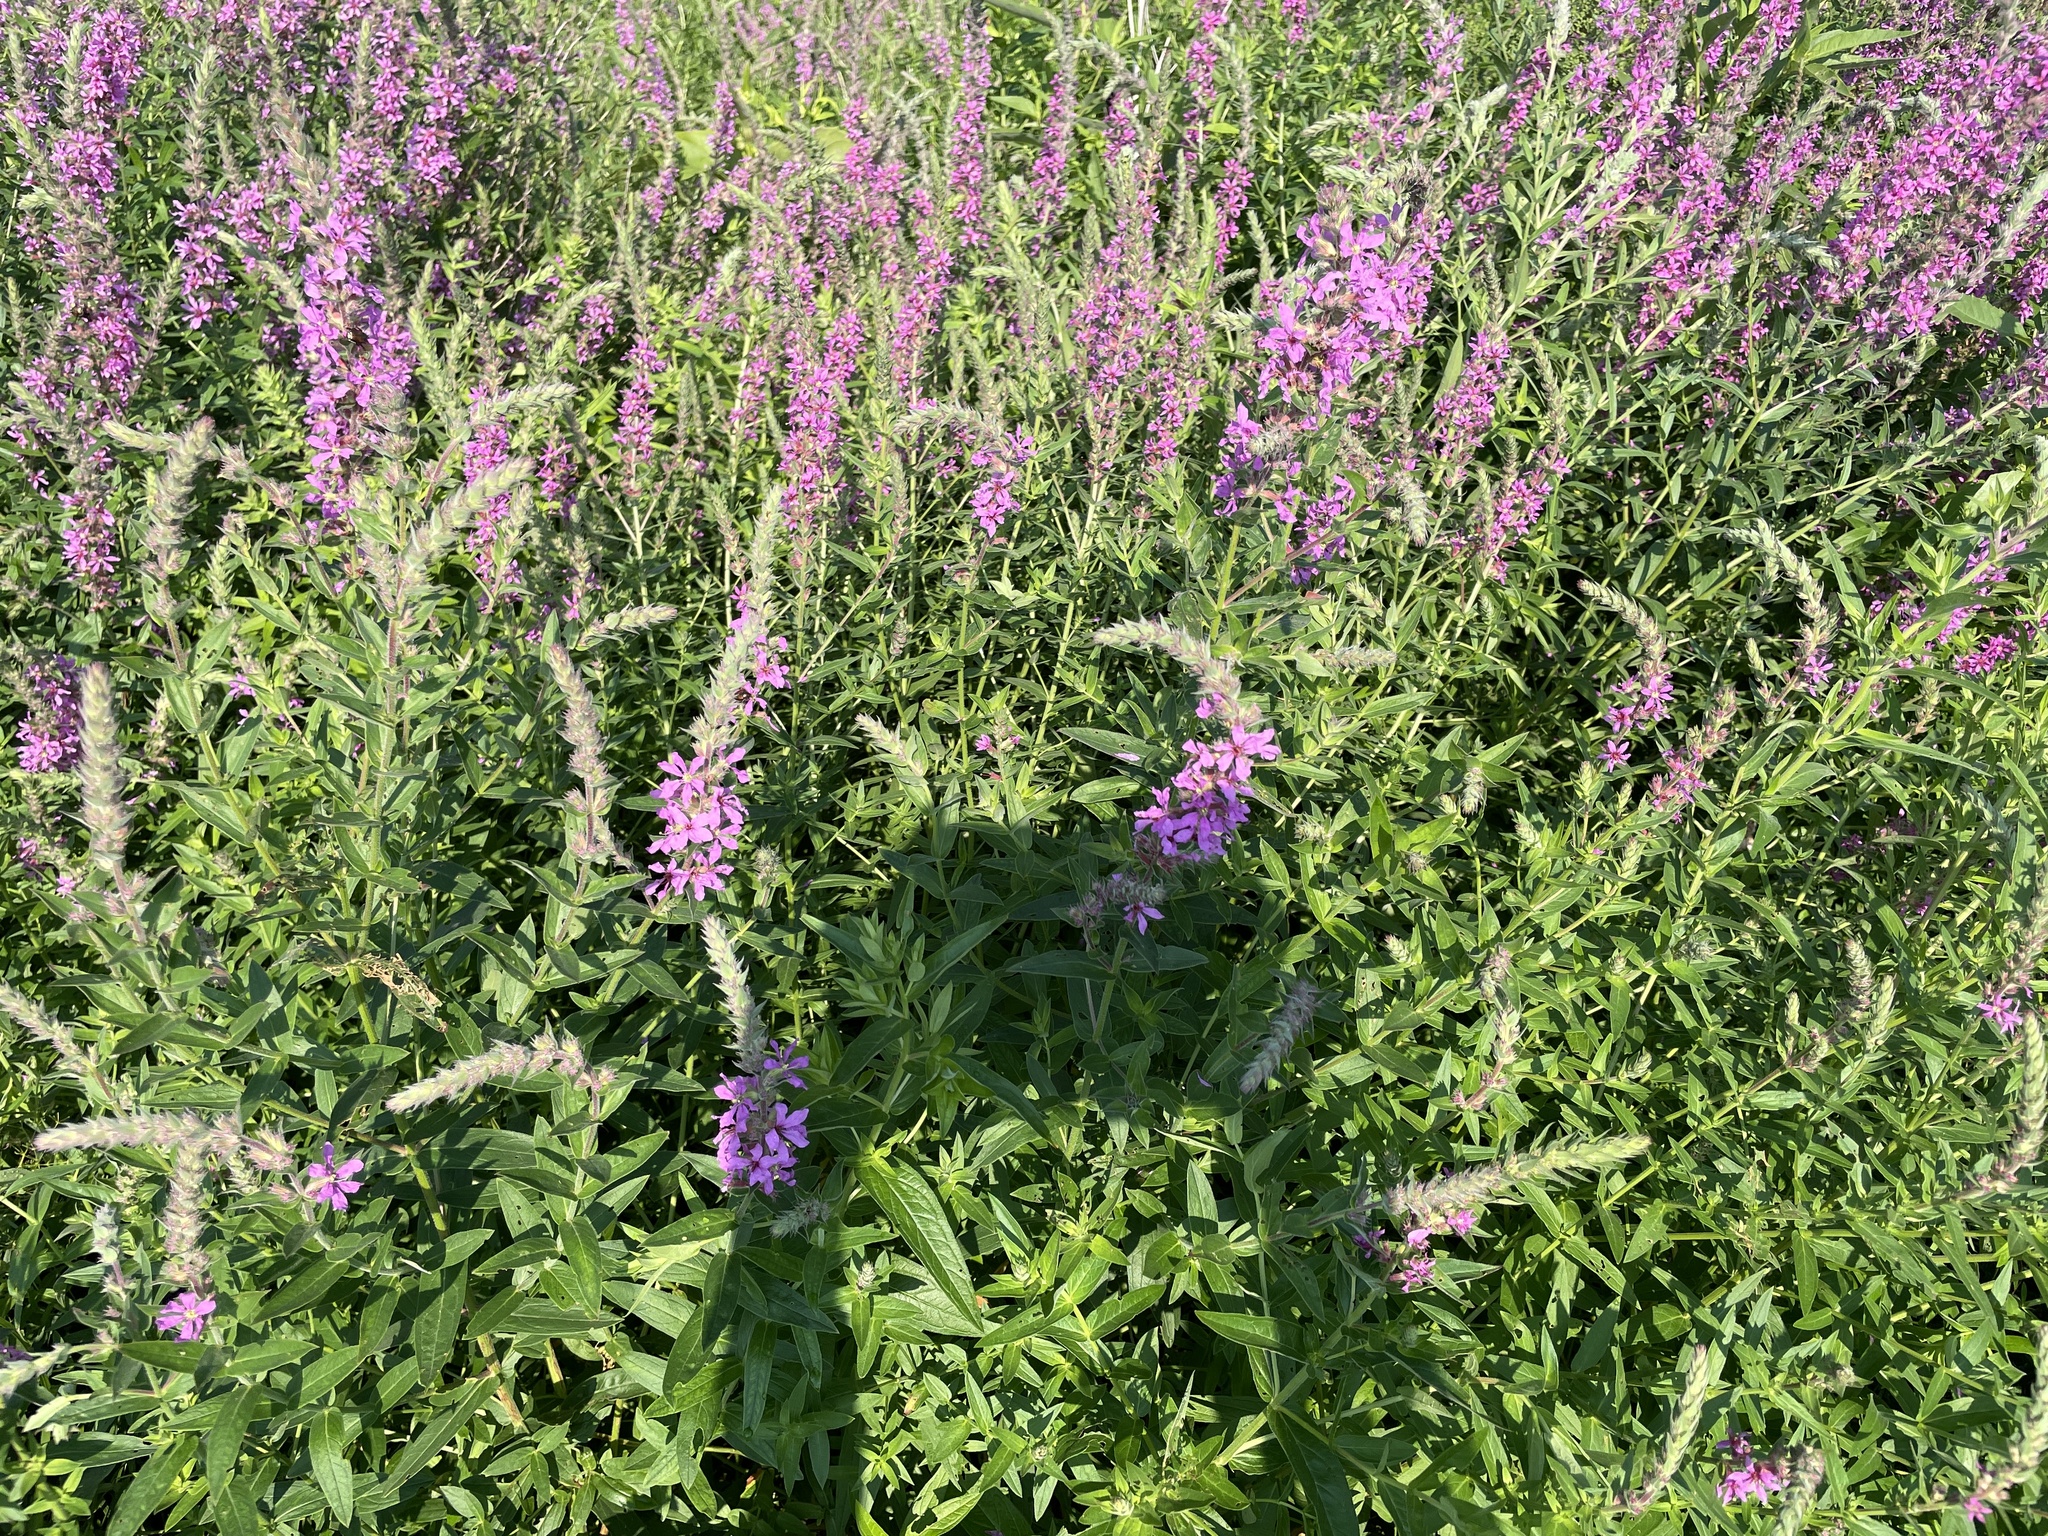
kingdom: Plantae
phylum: Tracheophyta
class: Magnoliopsida
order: Myrtales
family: Lythraceae
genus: Lythrum
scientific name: Lythrum salicaria
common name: Purple loosestrife
